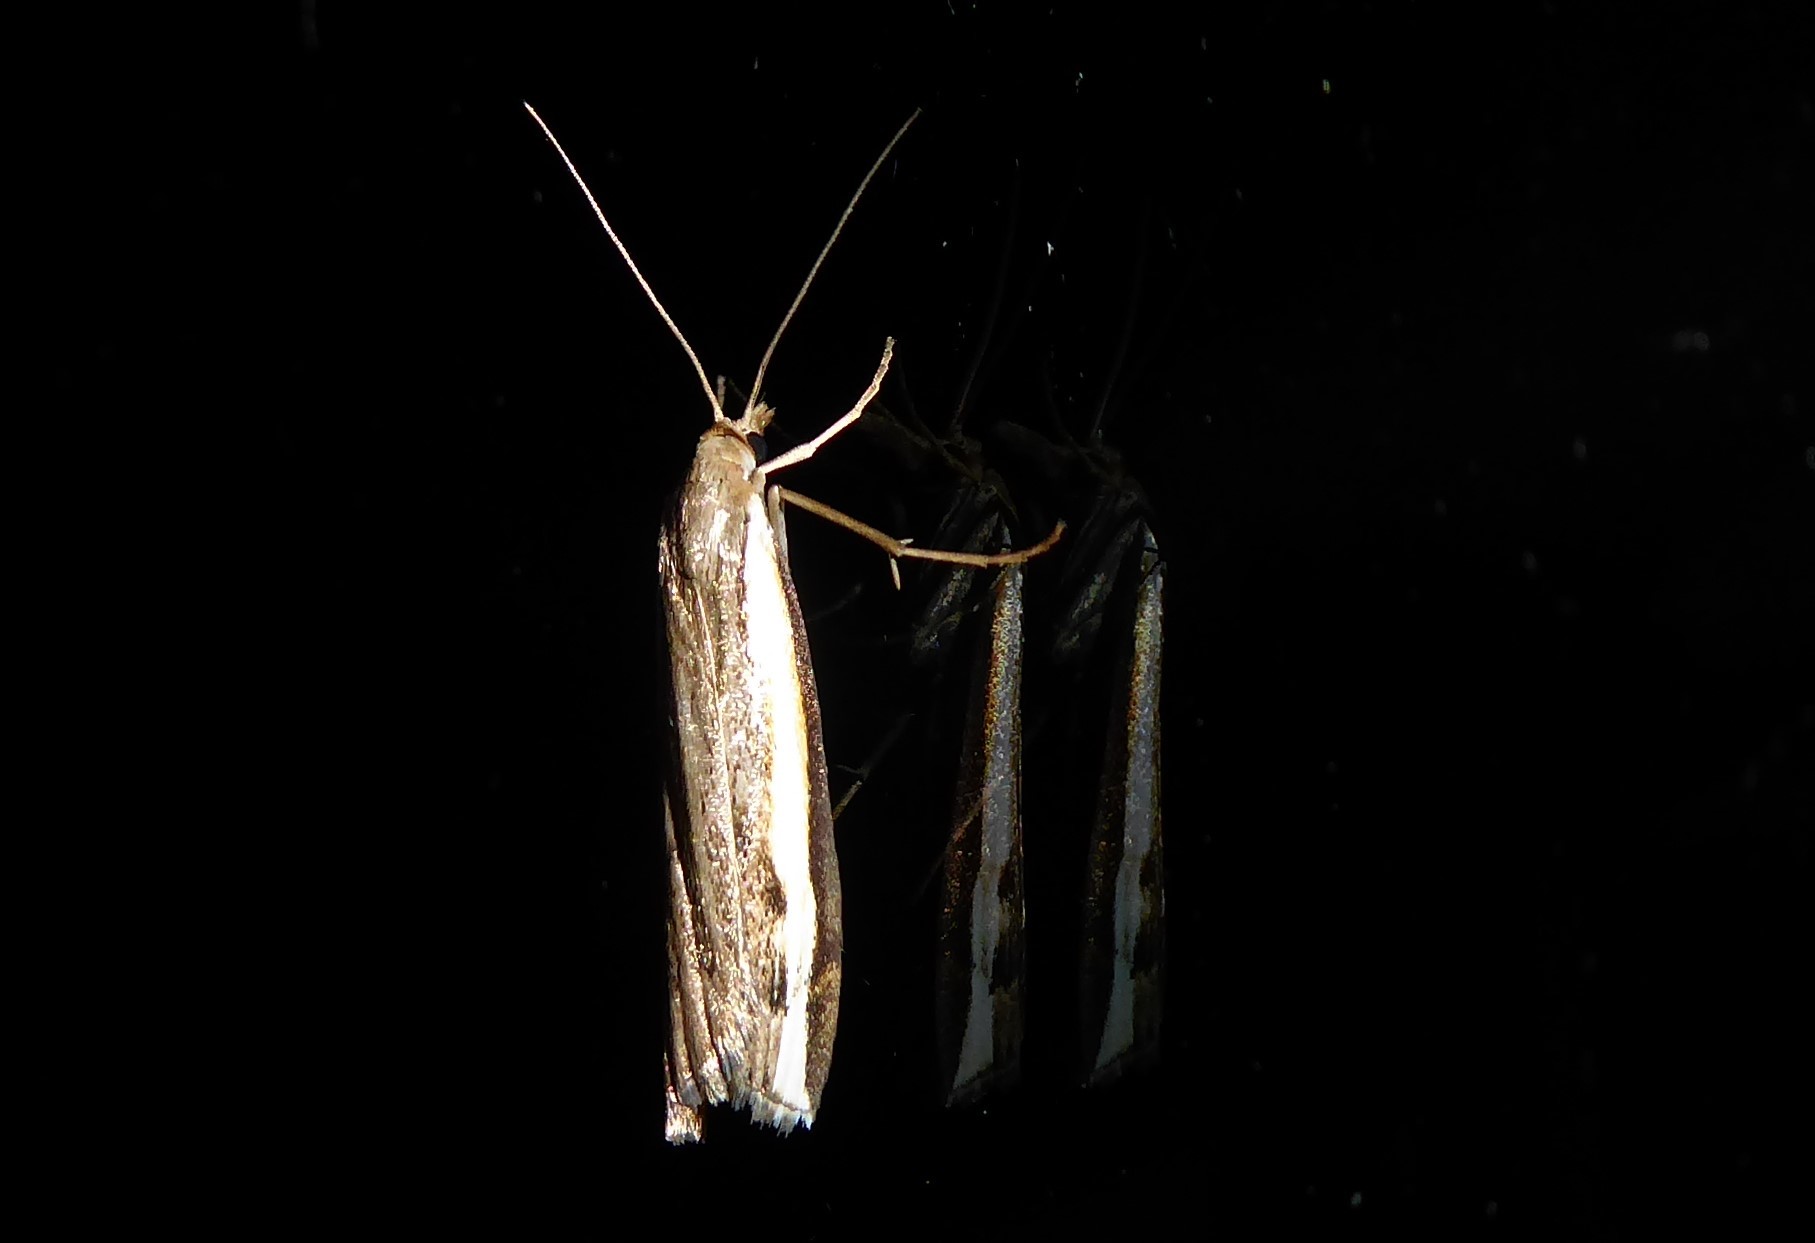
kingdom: Animalia
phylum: Arthropoda
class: Insecta
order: Lepidoptera
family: Crambidae
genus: Orocrambus
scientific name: Orocrambus flexuosellus
